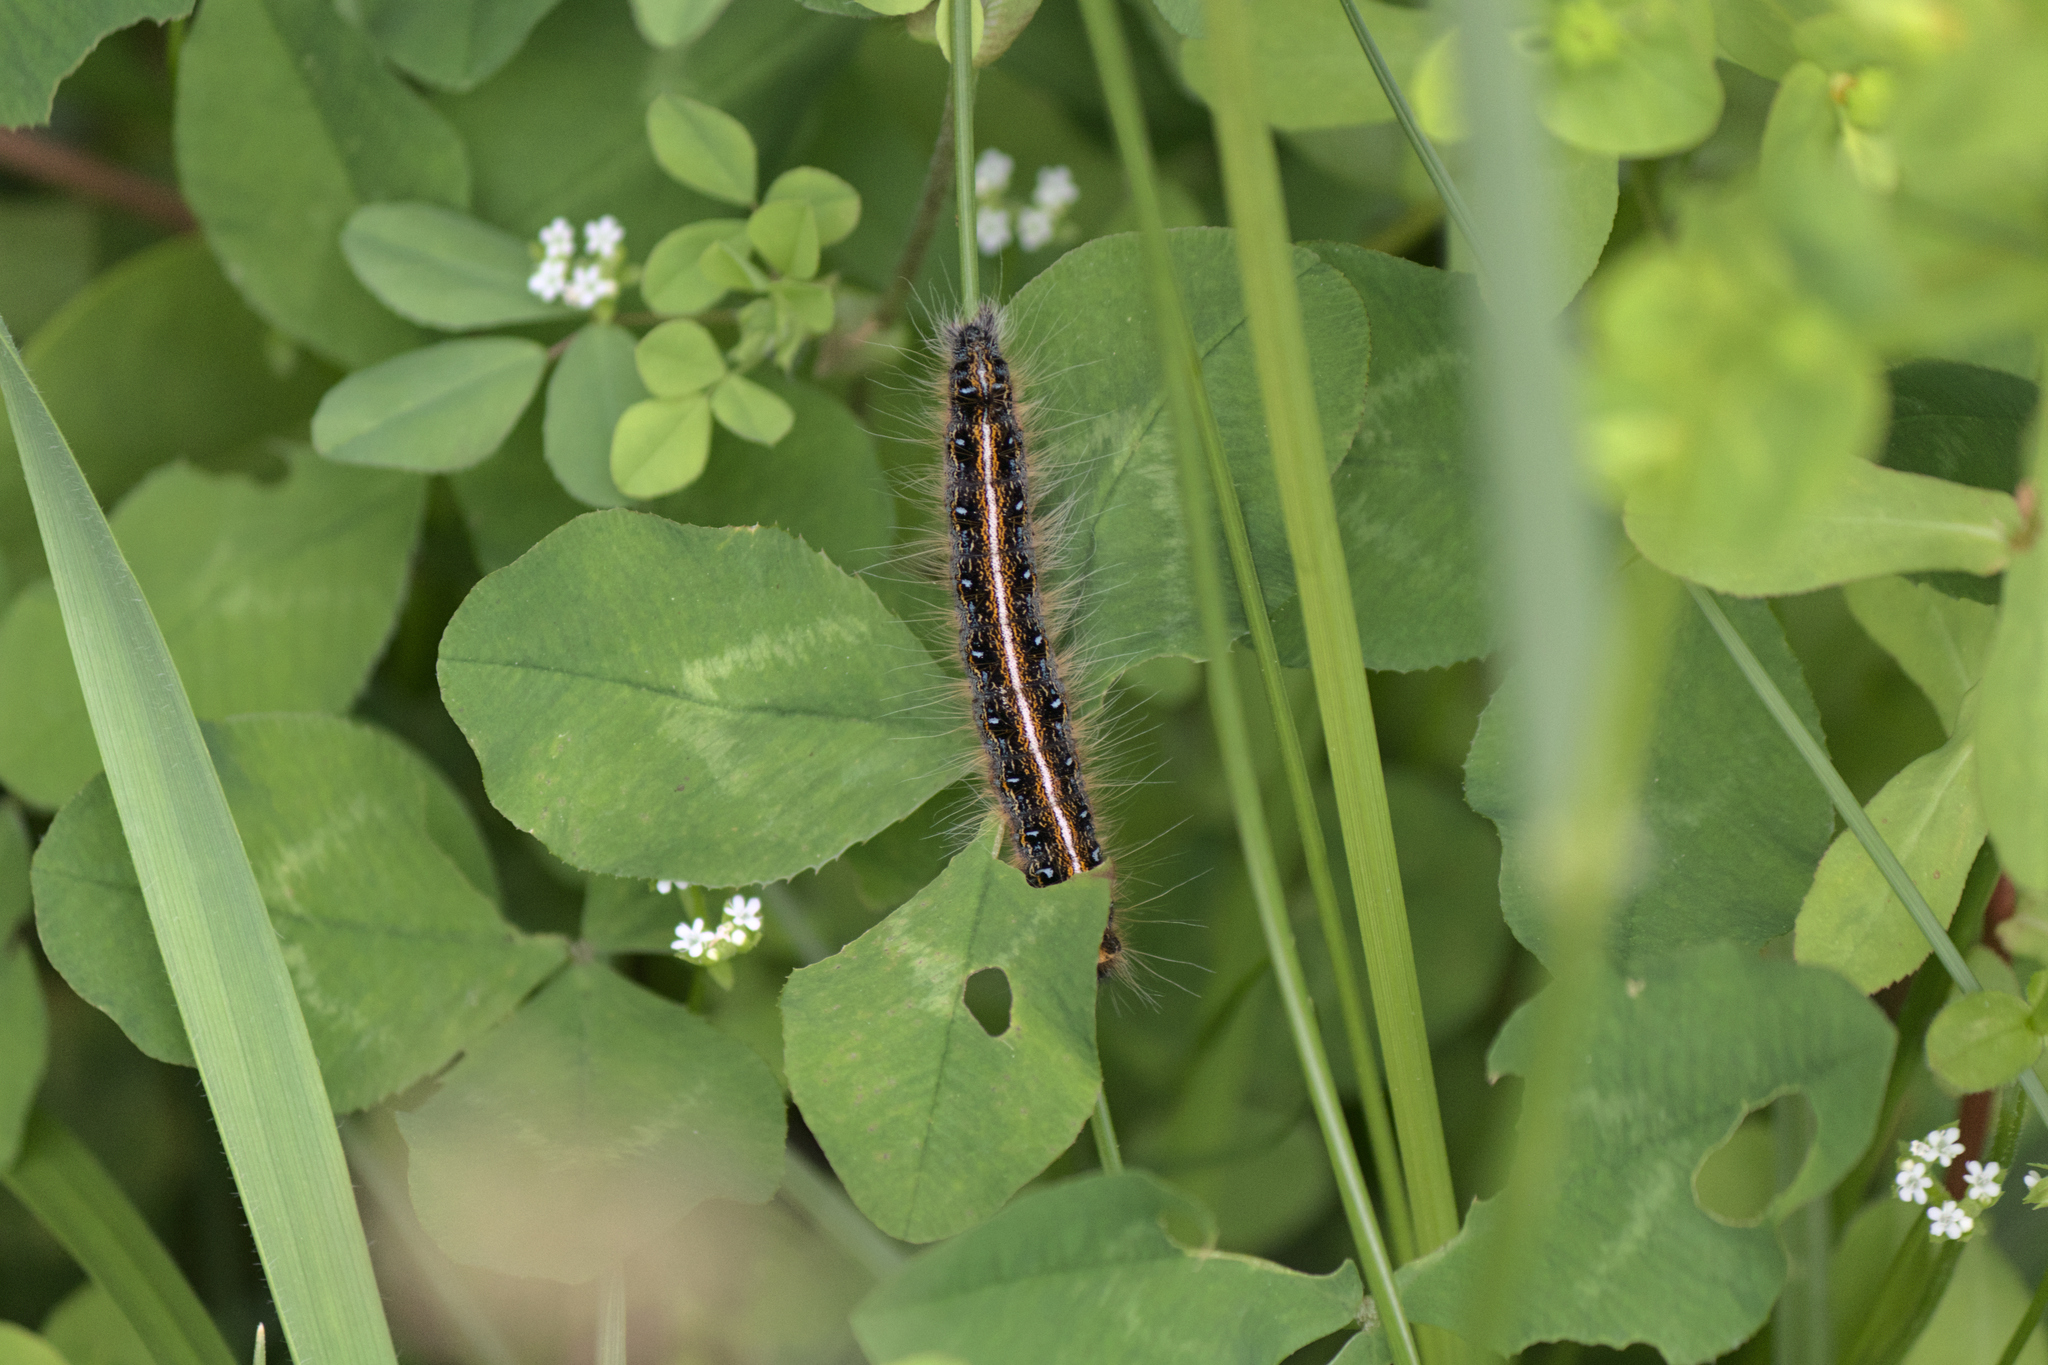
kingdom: Animalia
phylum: Arthropoda
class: Insecta
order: Lepidoptera
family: Lasiocampidae
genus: Malacosoma
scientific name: Malacosoma americana
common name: Eastern tent caterpillar moth
